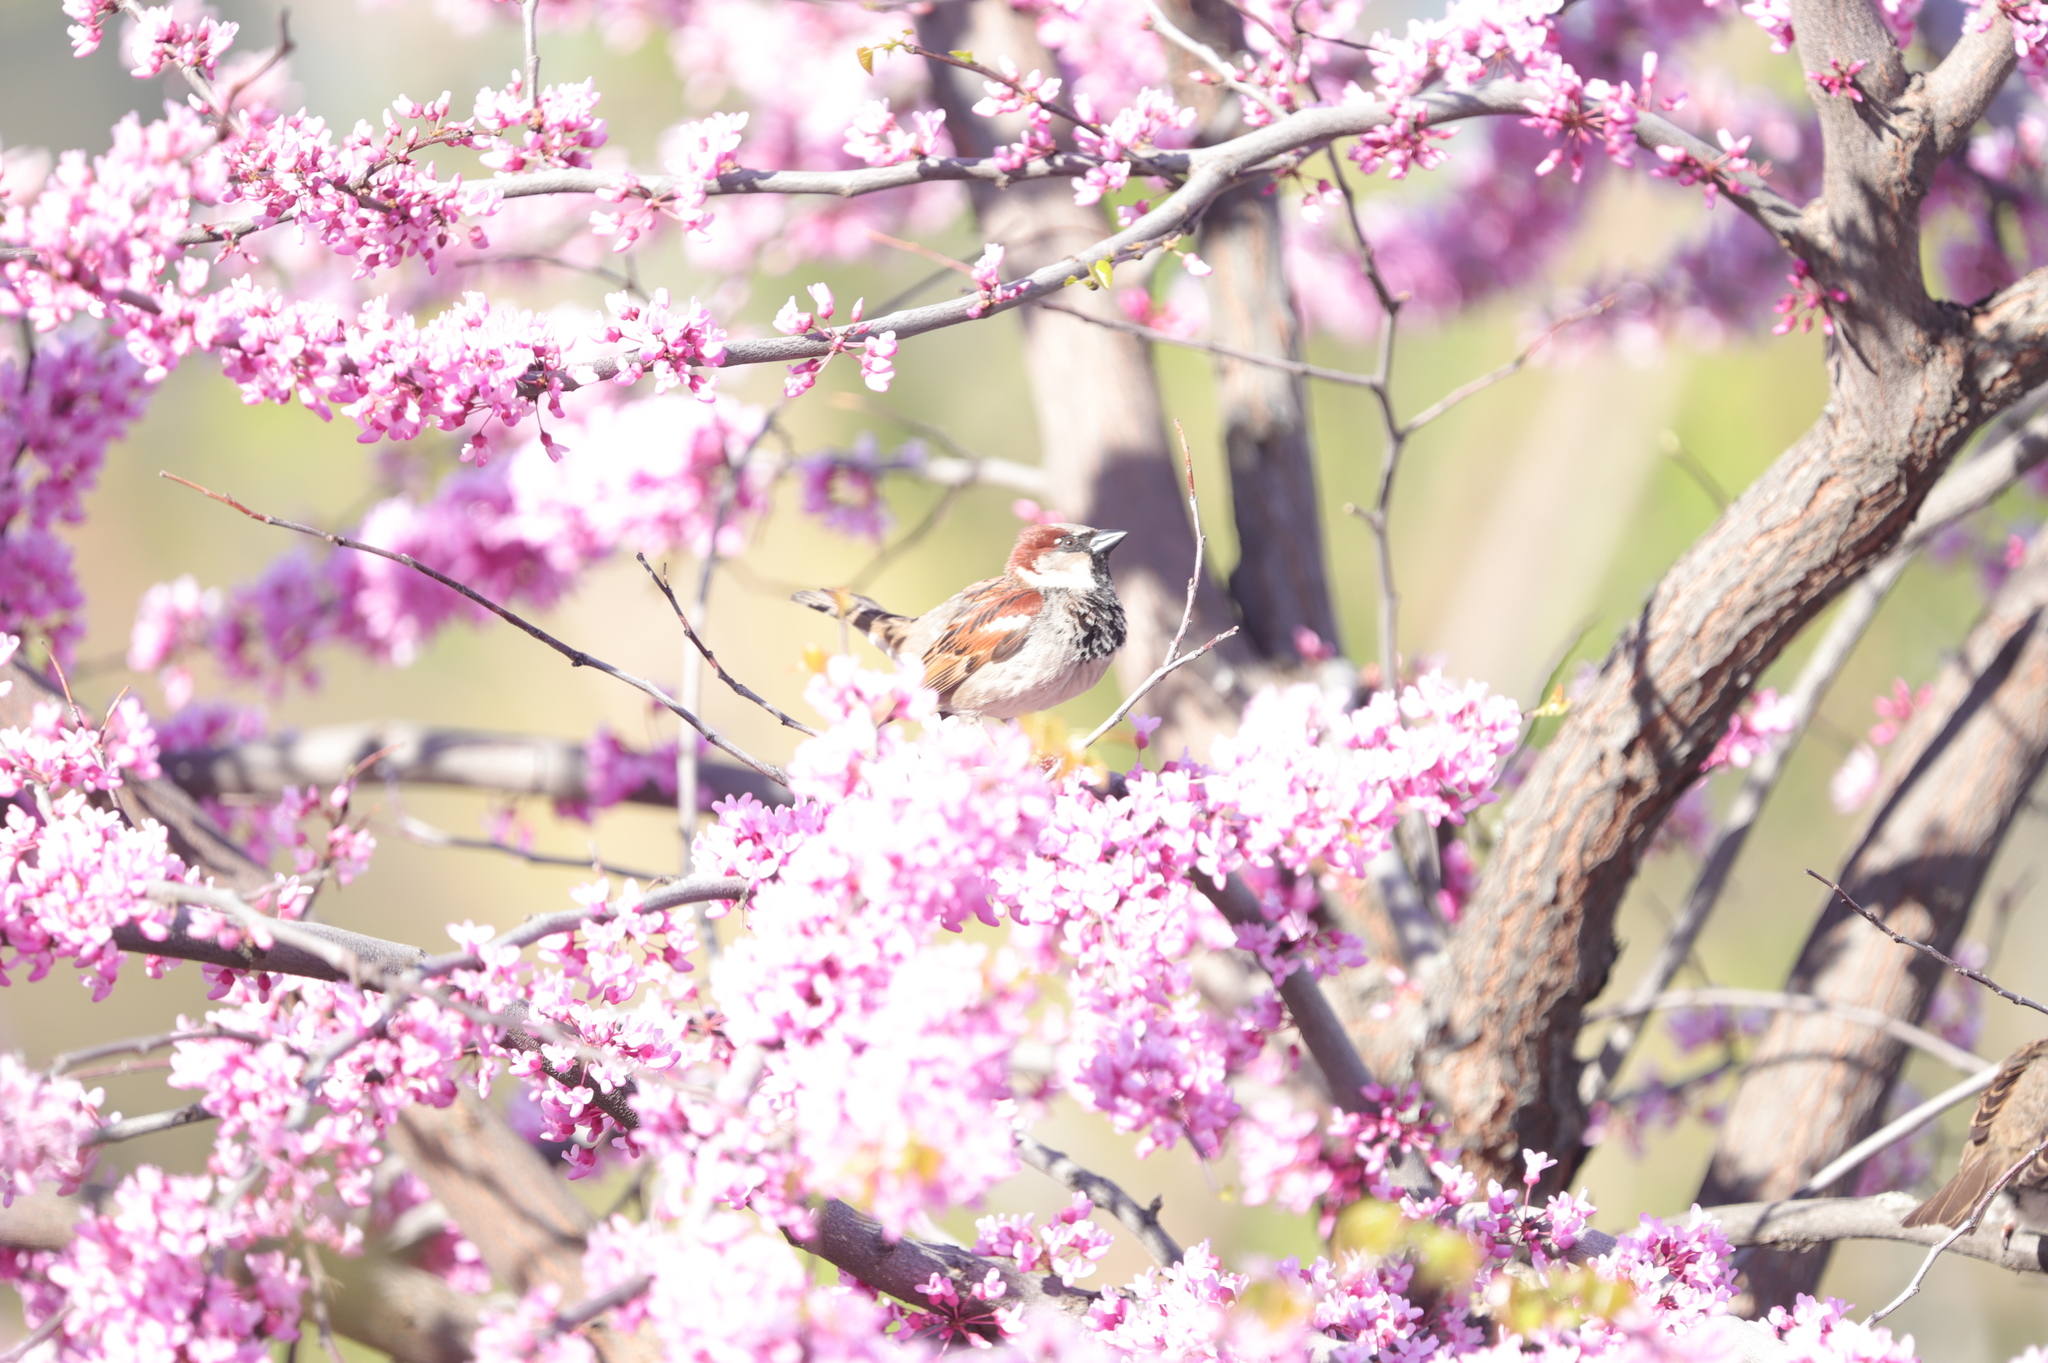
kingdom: Animalia
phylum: Chordata
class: Aves
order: Passeriformes
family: Passeridae
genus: Passer
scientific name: Passer domesticus
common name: House sparrow
